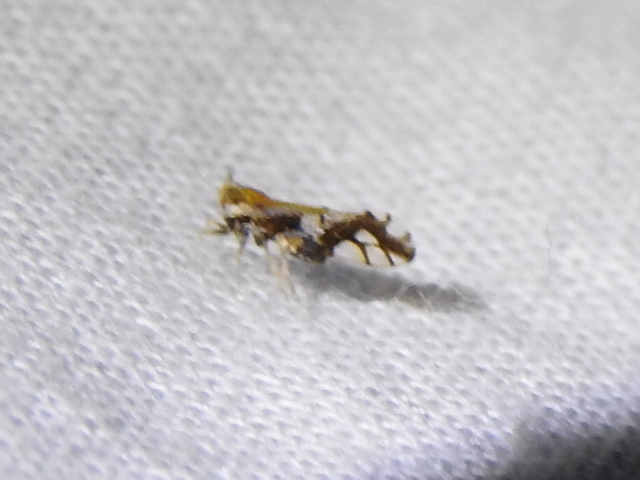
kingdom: Animalia
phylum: Arthropoda
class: Insecta
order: Hemiptera
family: Delphacidae
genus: Liburniella
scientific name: Liburniella ornata
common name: Ornate planthopper
